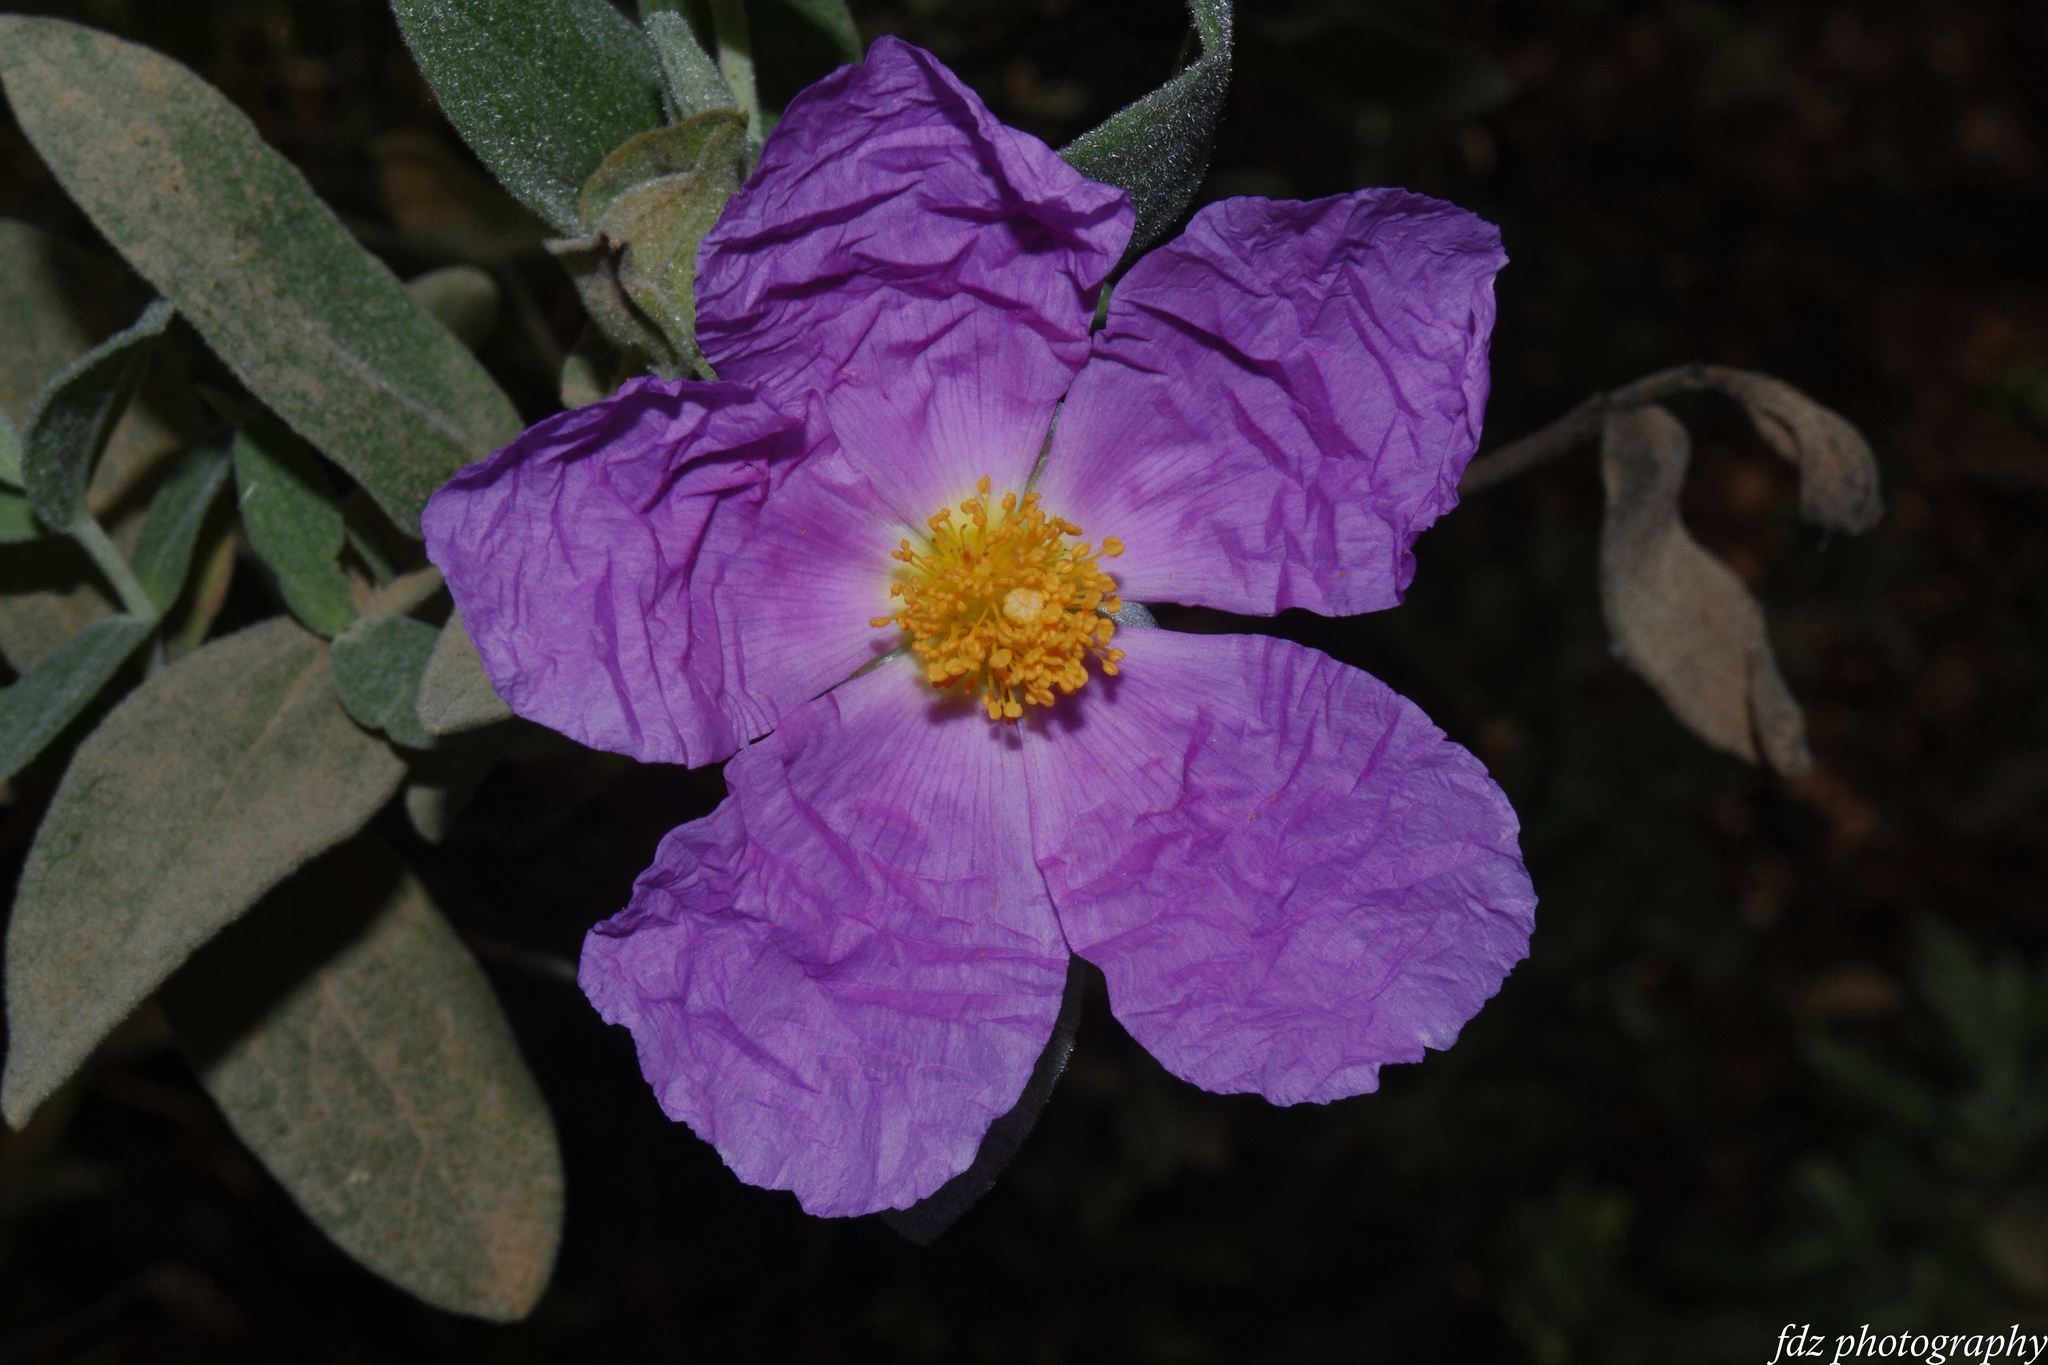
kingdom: Plantae
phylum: Tracheophyta
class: Magnoliopsida
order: Malvales
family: Cistaceae
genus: Cistus
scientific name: Cistus albidus
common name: White-leaf rock-rose
